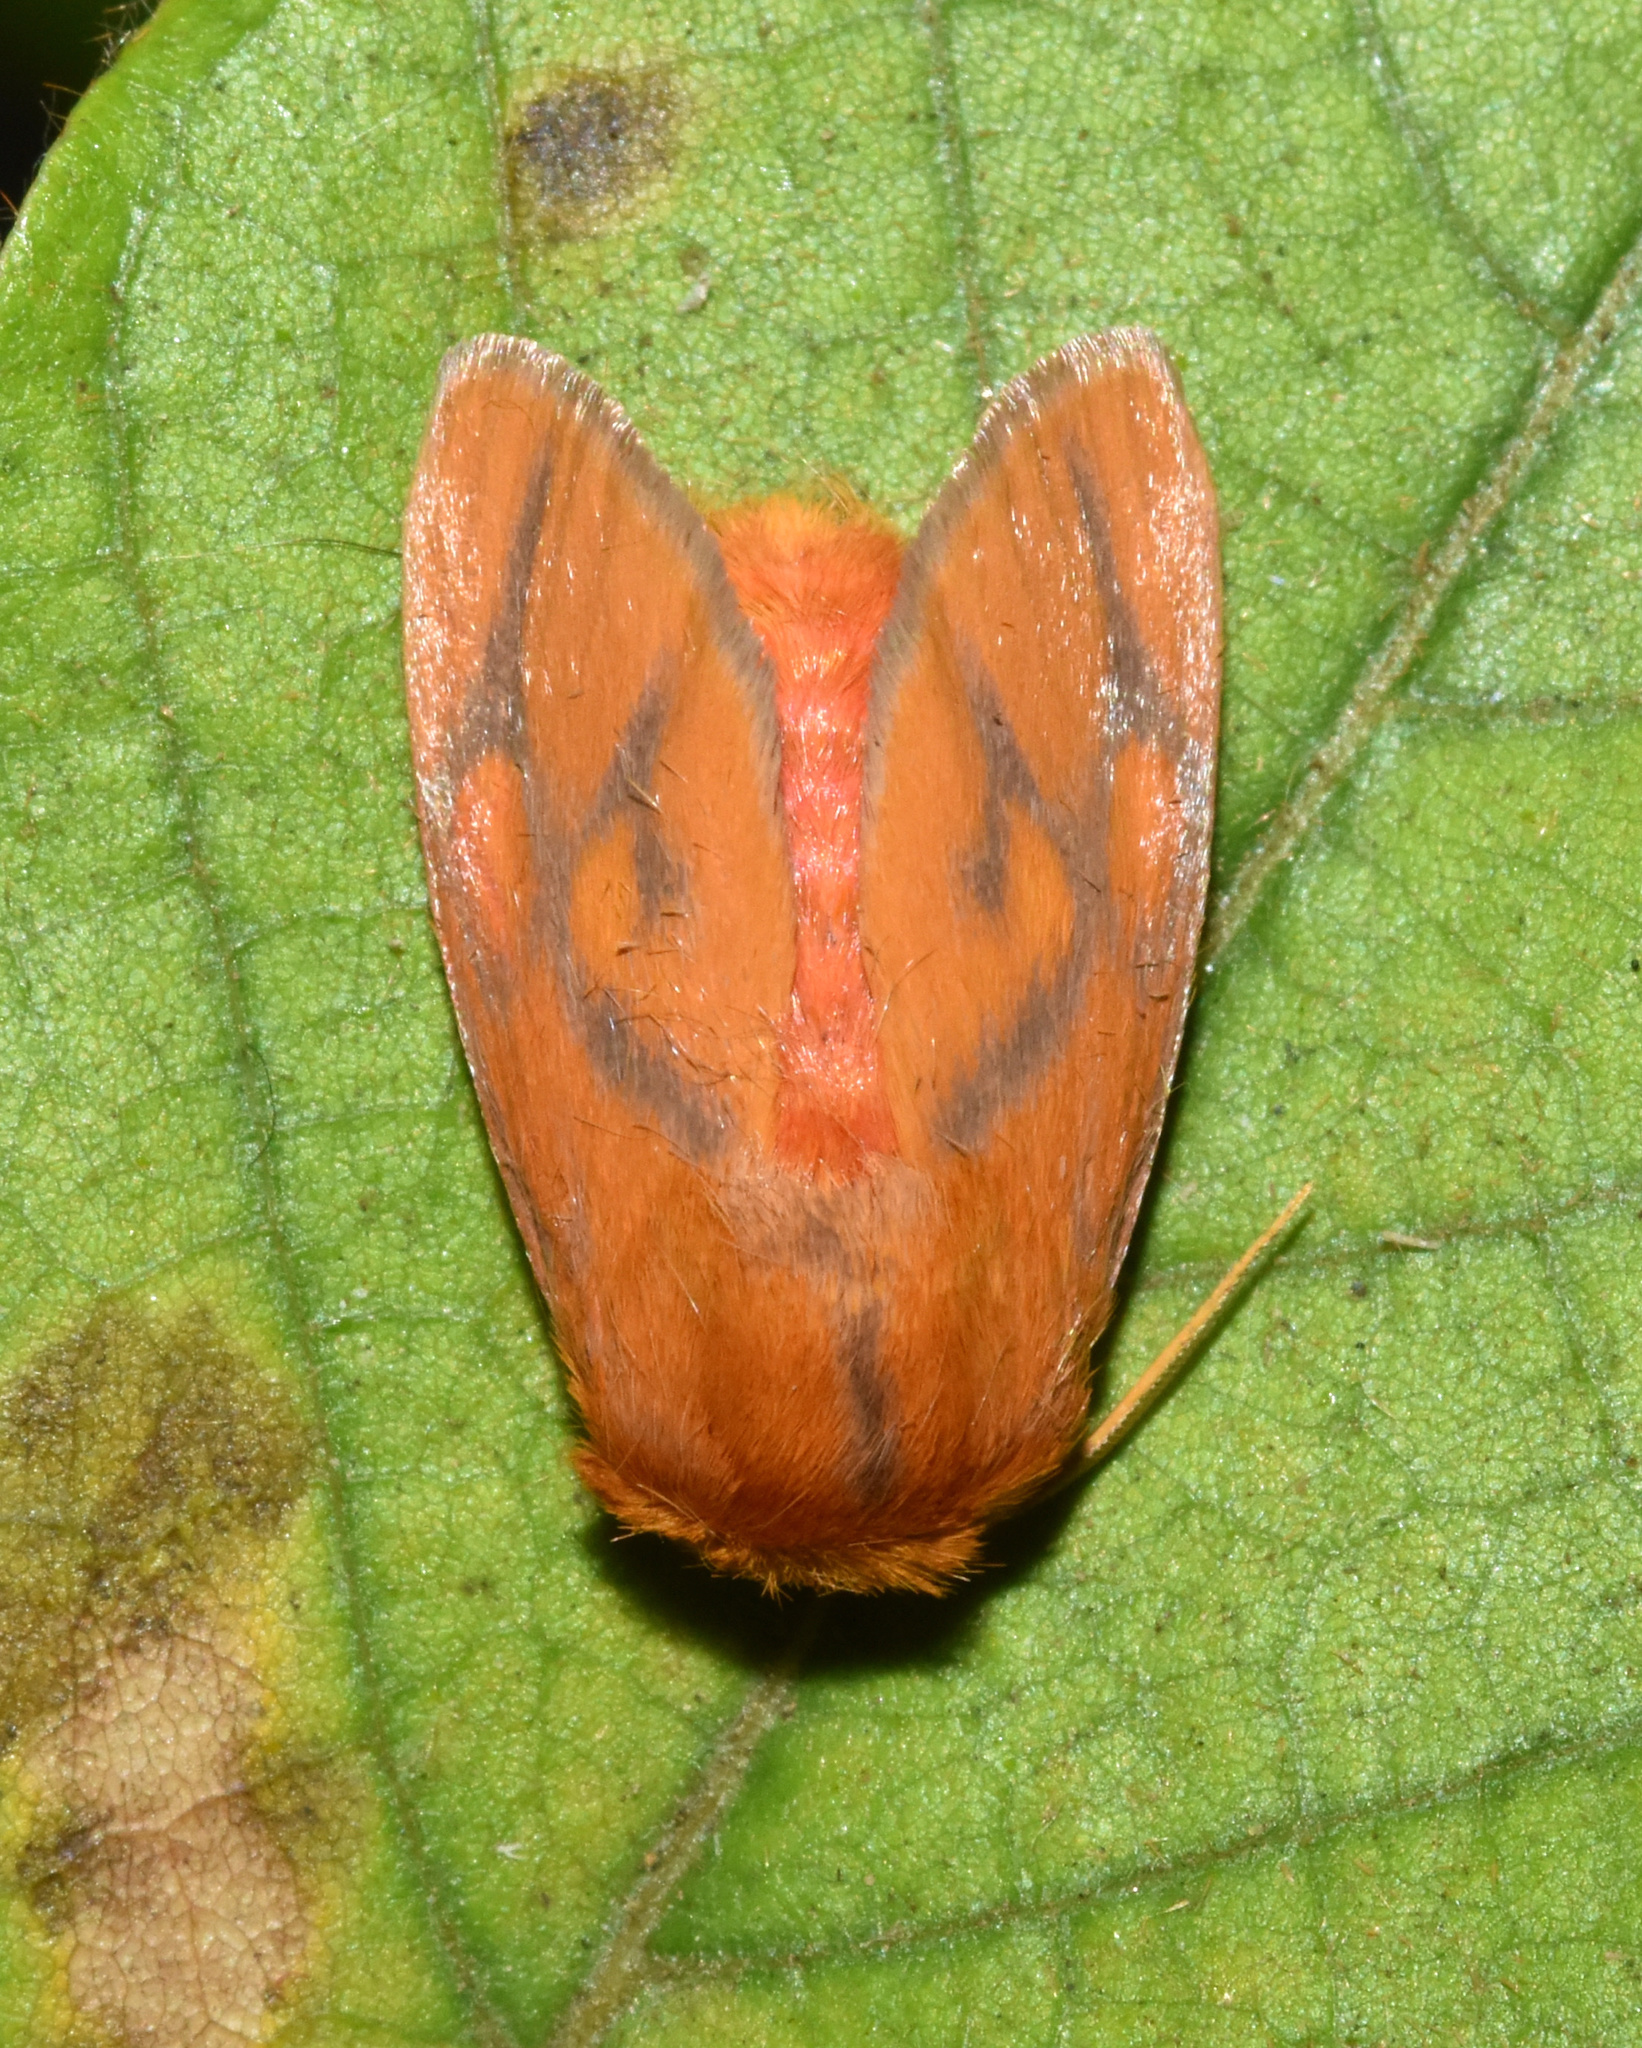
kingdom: Animalia
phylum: Arthropoda
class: Insecta
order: Lepidoptera
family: Limacodidae
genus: Micraphe
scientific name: Micraphe lateritia
